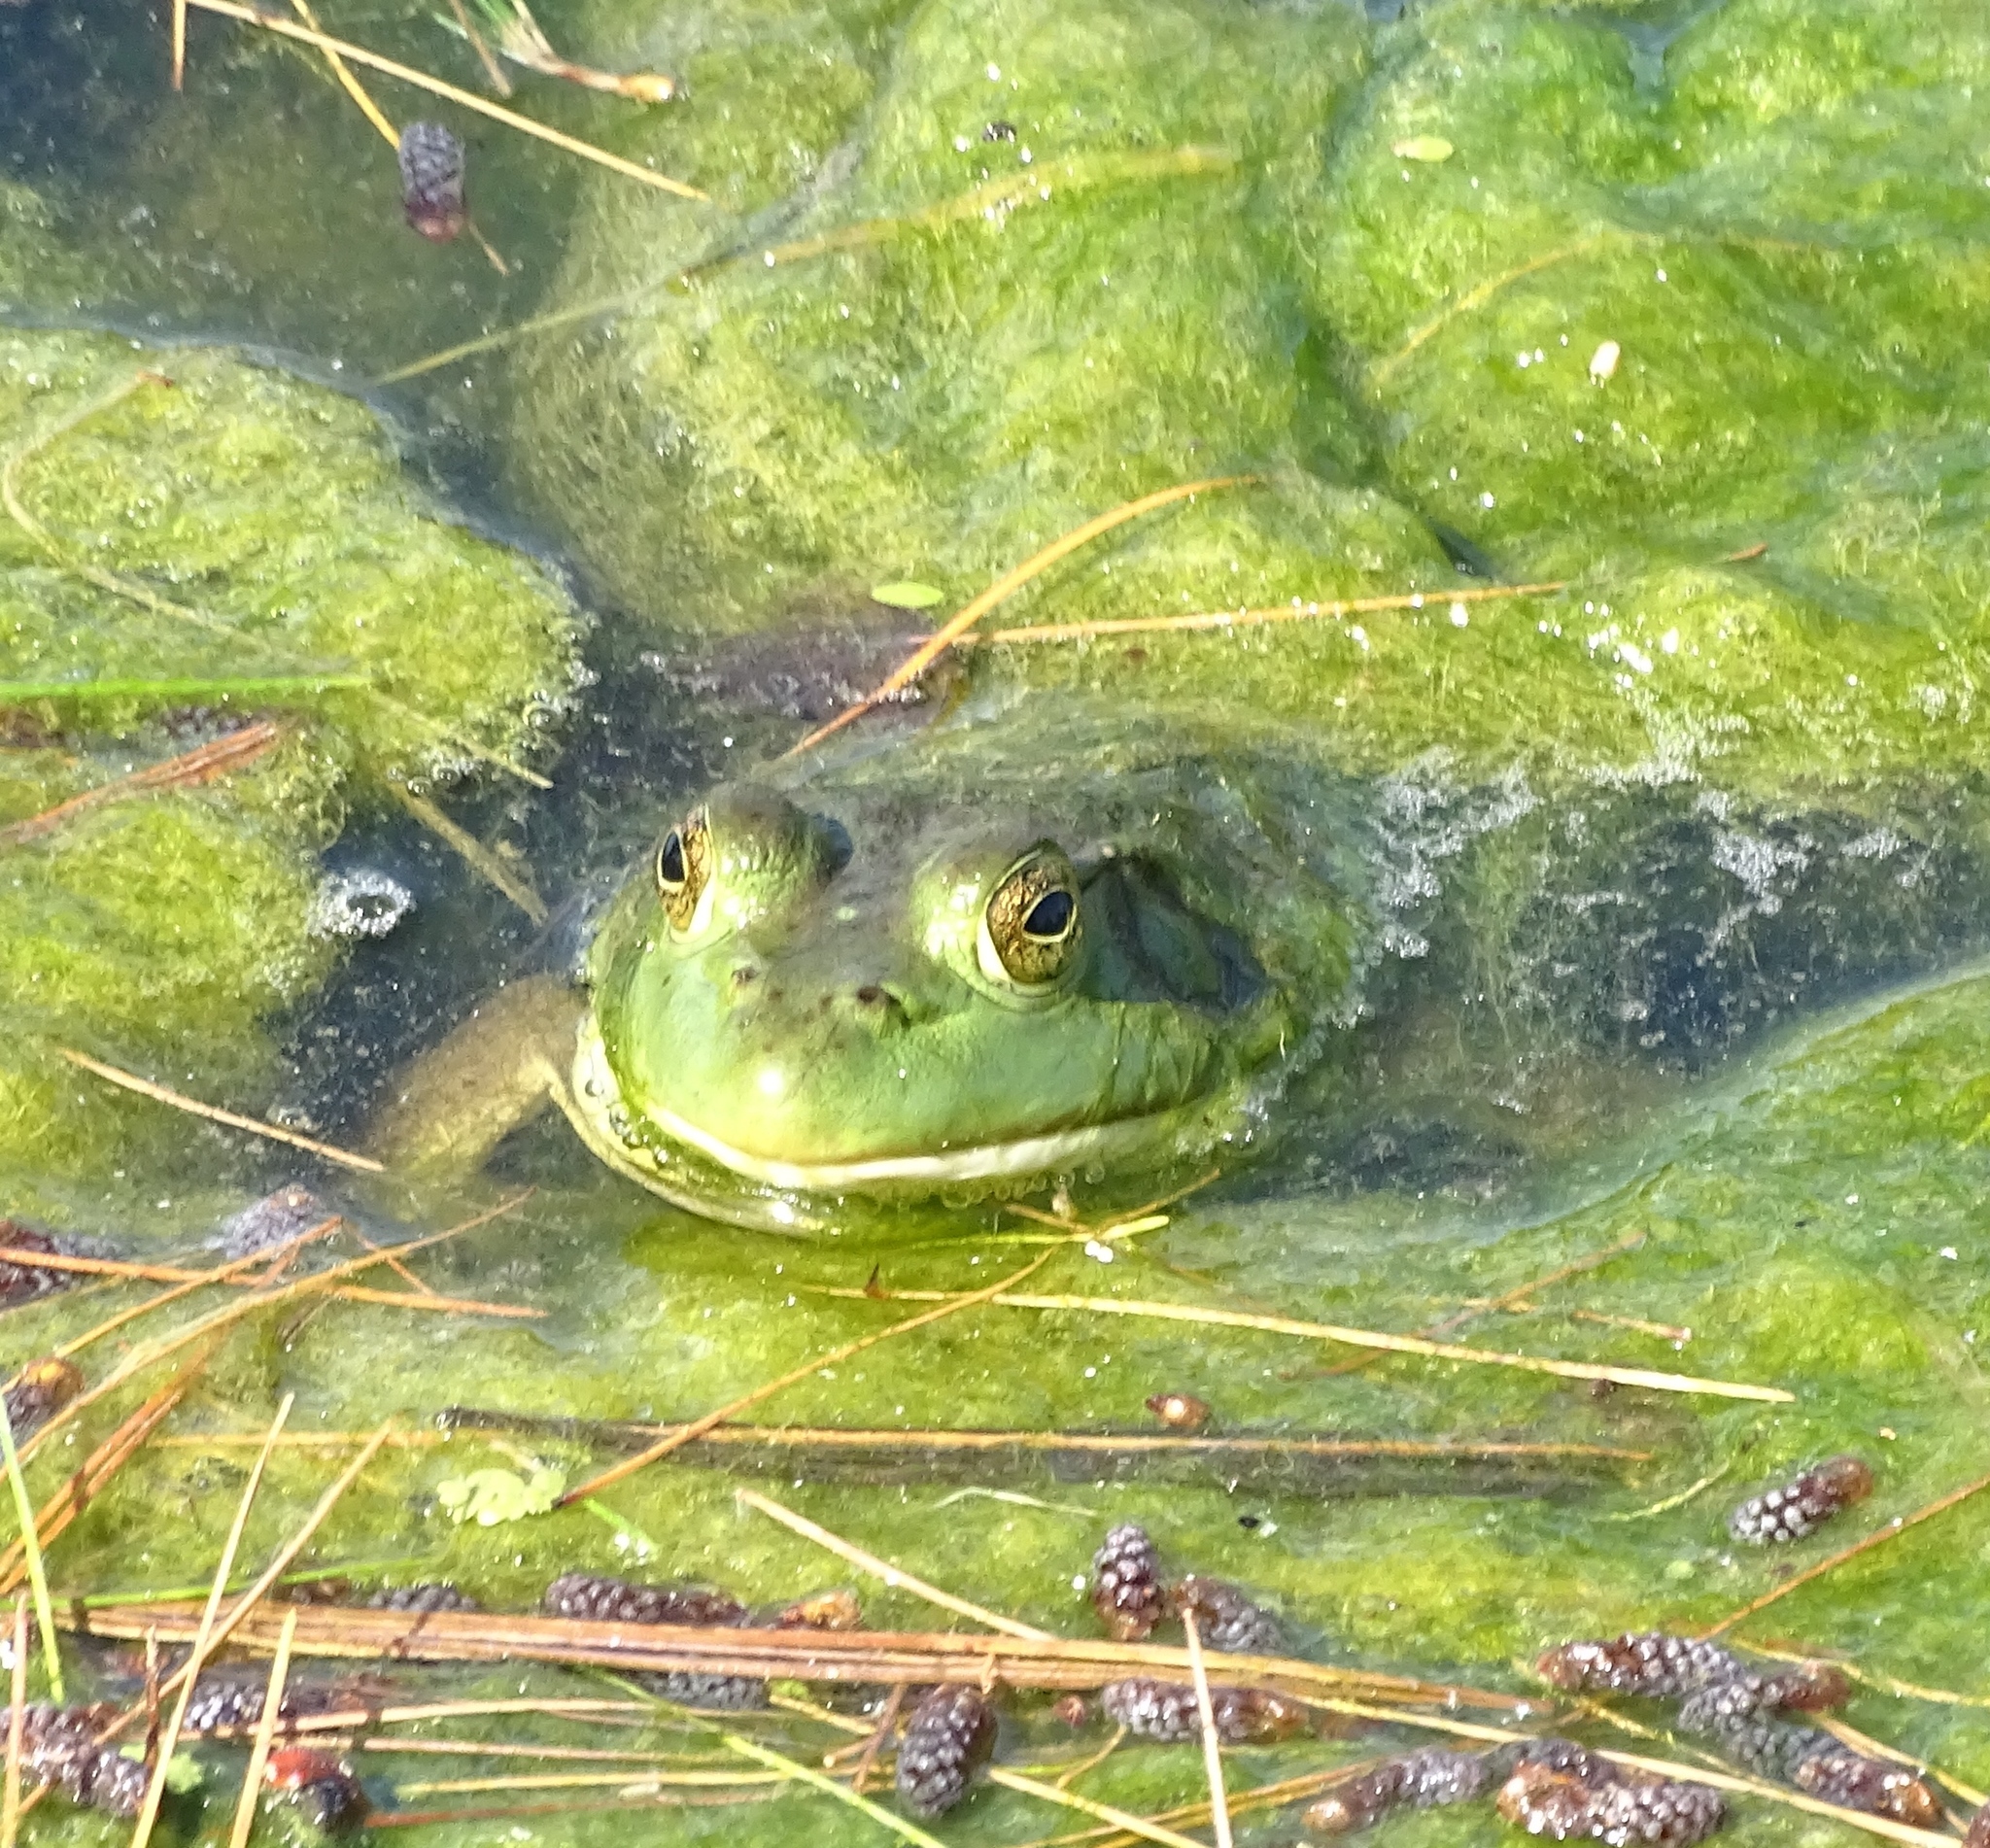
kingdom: Animalia
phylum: Chordata
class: Amphibia
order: Anura
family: Ranidae
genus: Lithobates
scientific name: Lithobates catesbeianus
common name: American bullfrog
